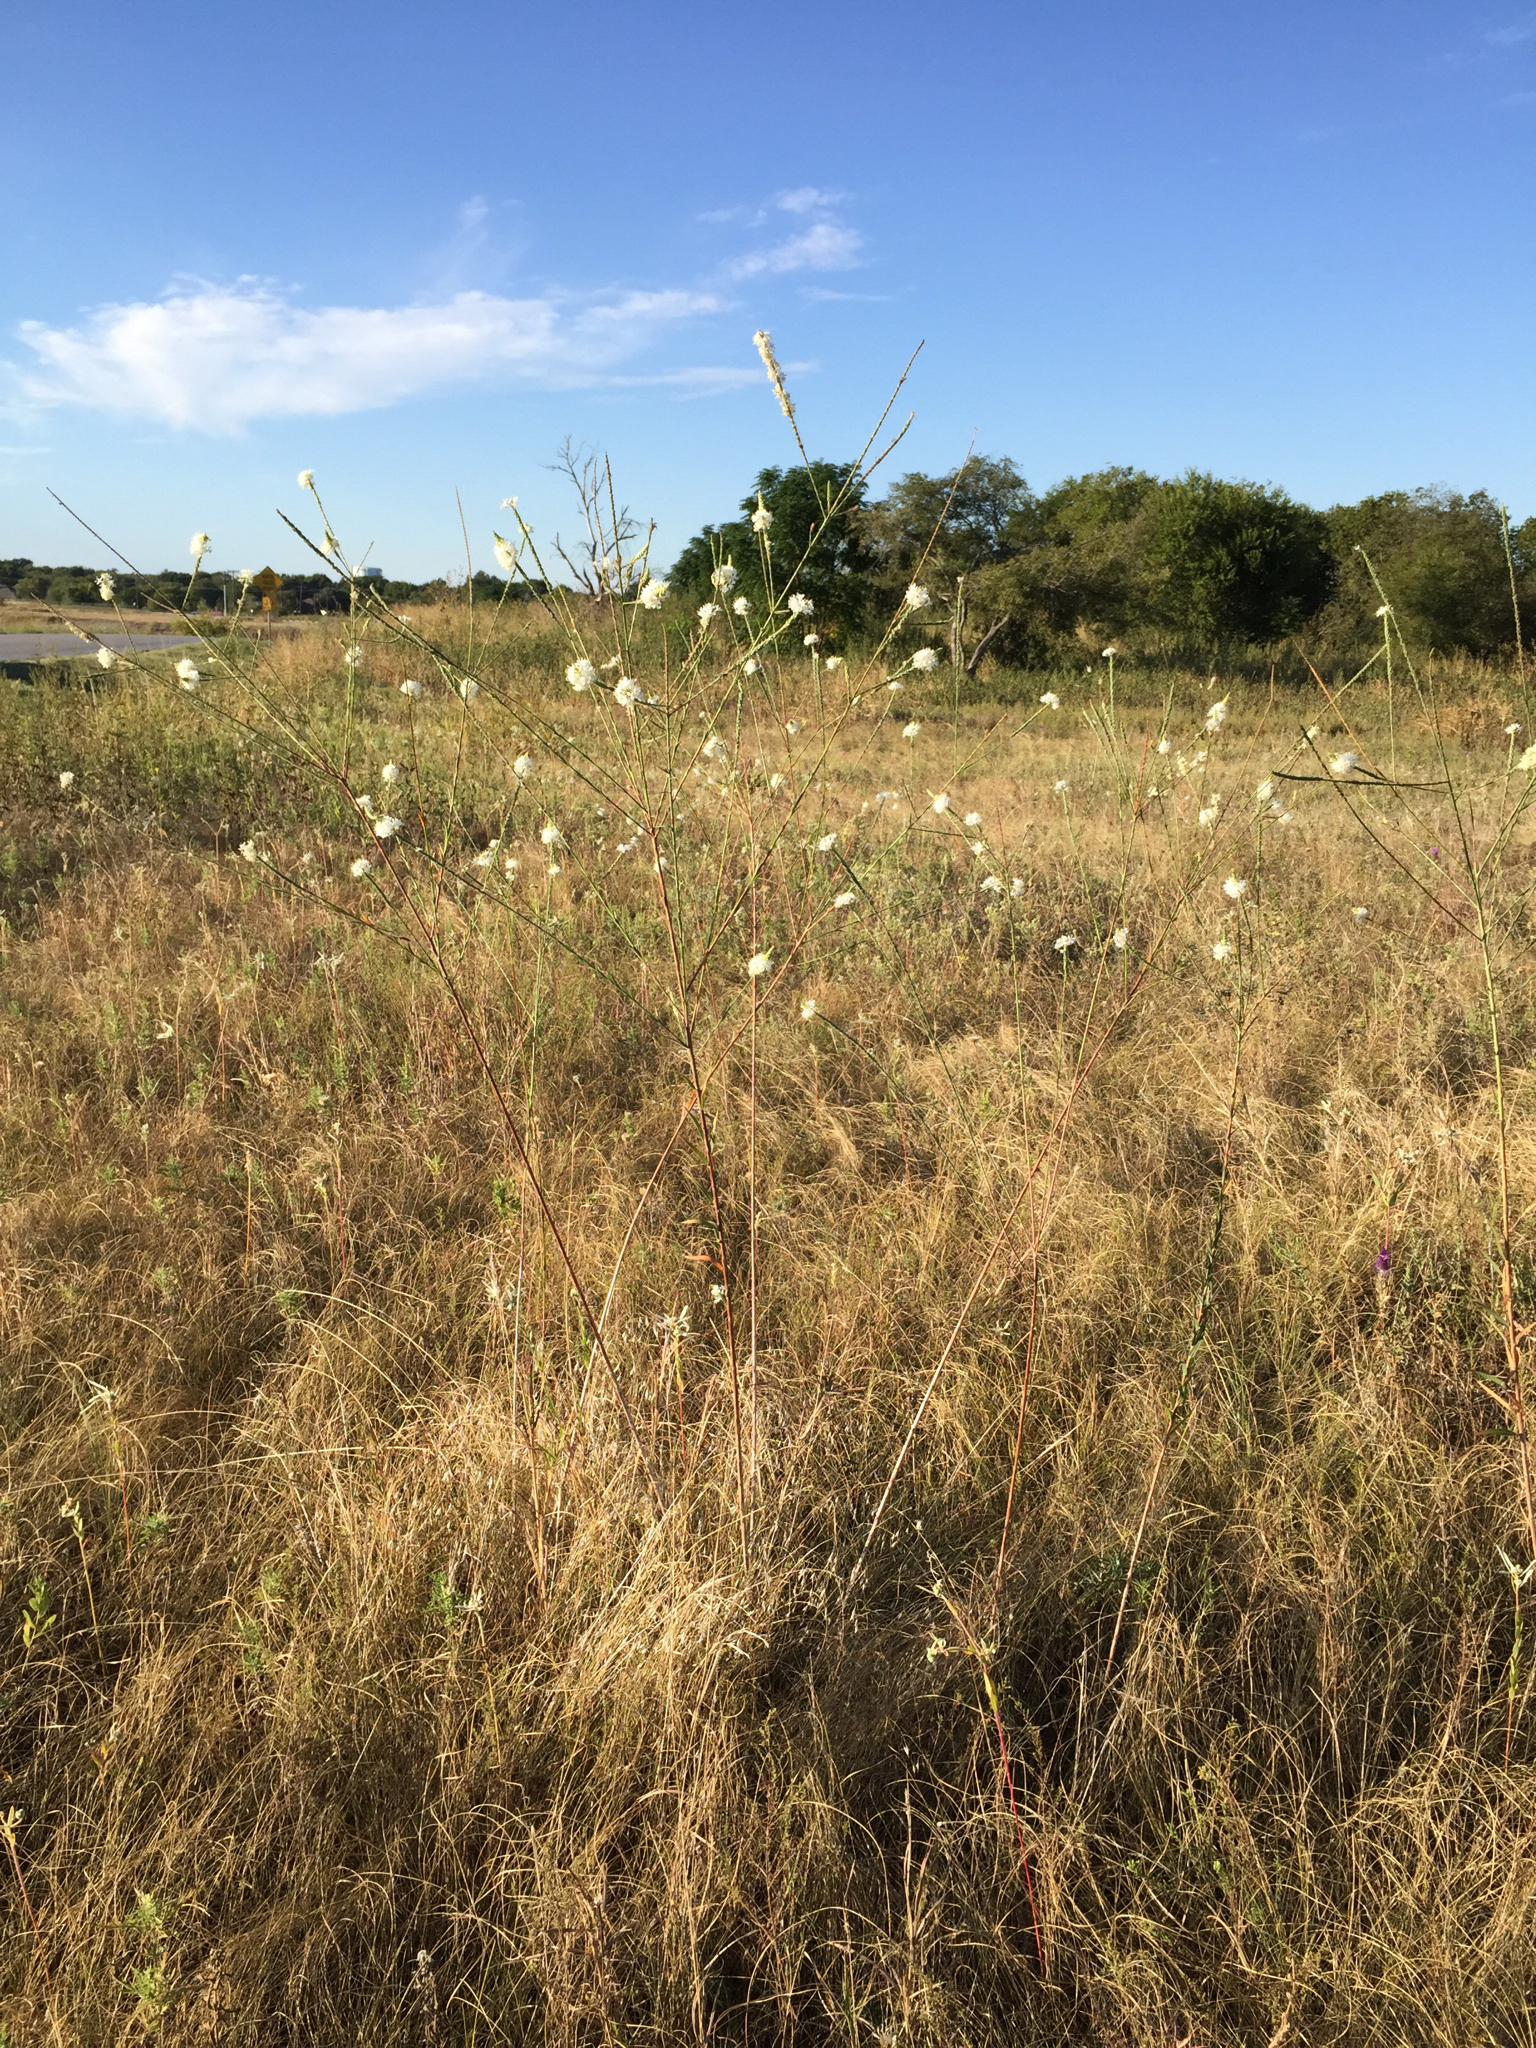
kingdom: Plantae
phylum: Tracheophyta
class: Magnoliopsida
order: Myrtales
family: Onagraceae
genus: Oenothera
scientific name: Oenothera glaucifolia
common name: False gaura
